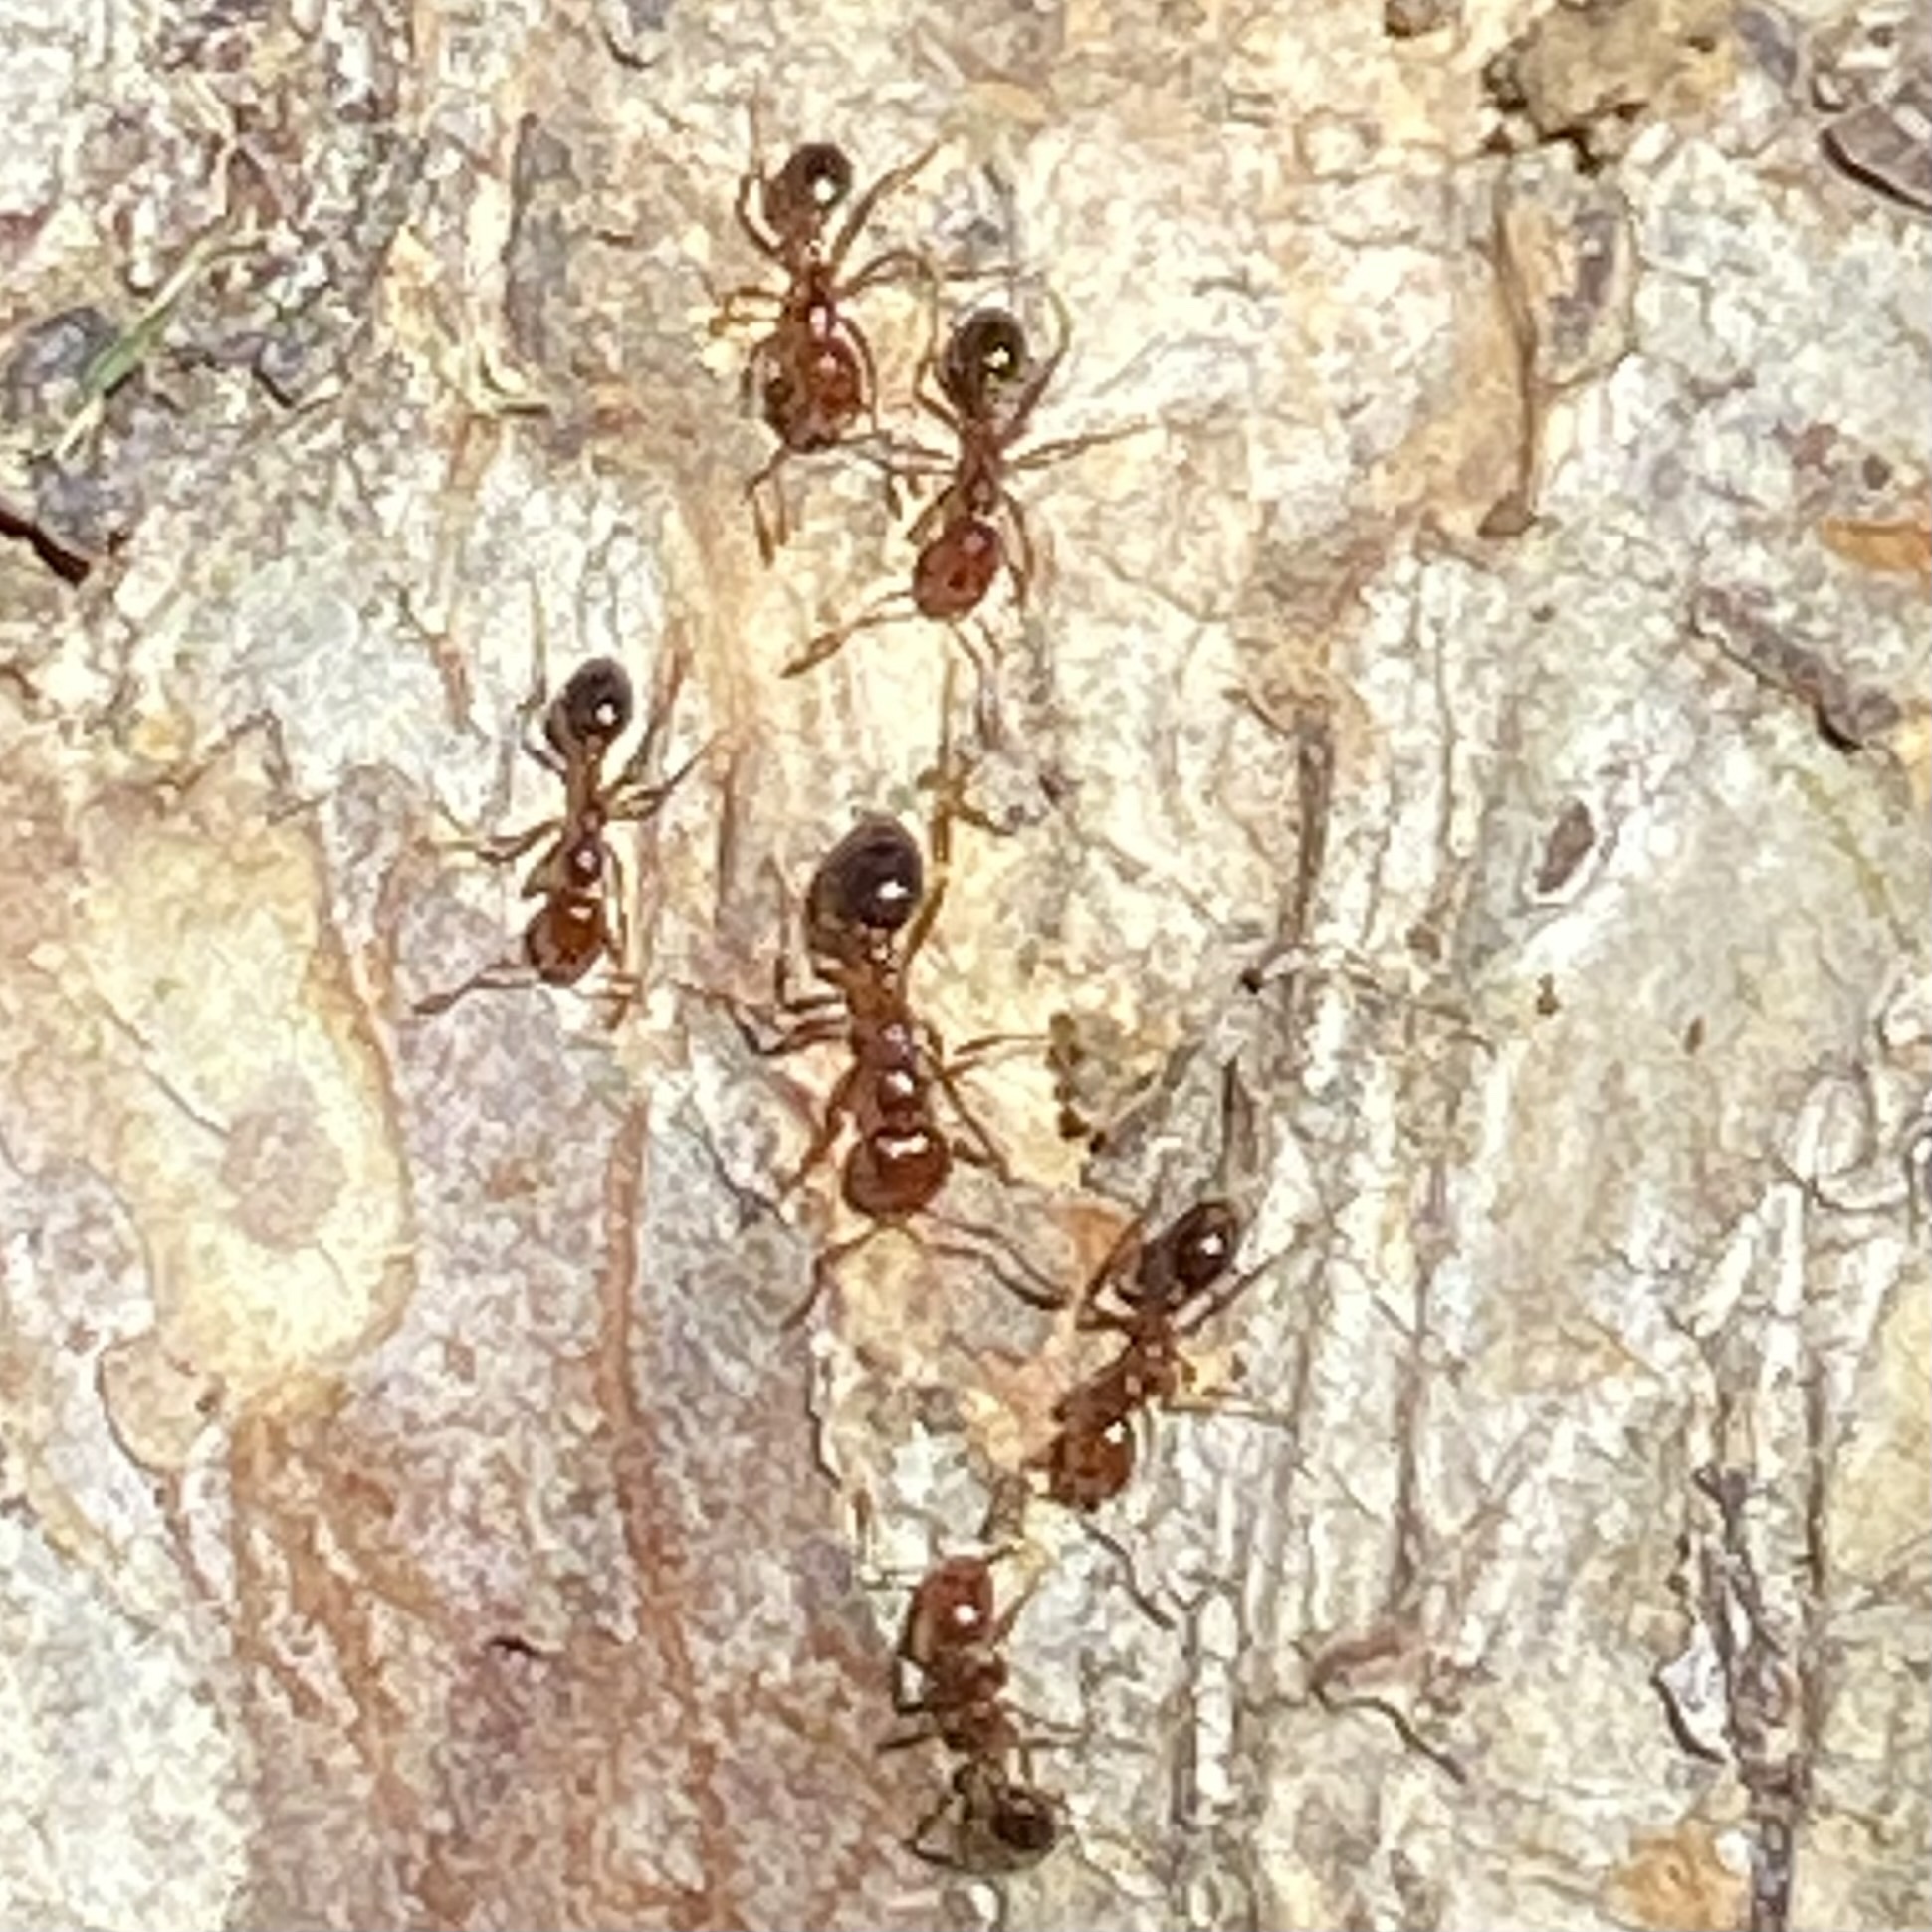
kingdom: Animalia
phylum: Arthropoda
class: Insecta
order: Hymenoptera
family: Formicidae
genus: Solenopsis
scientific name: Solenopsis invicta
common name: Red imported fire ant
